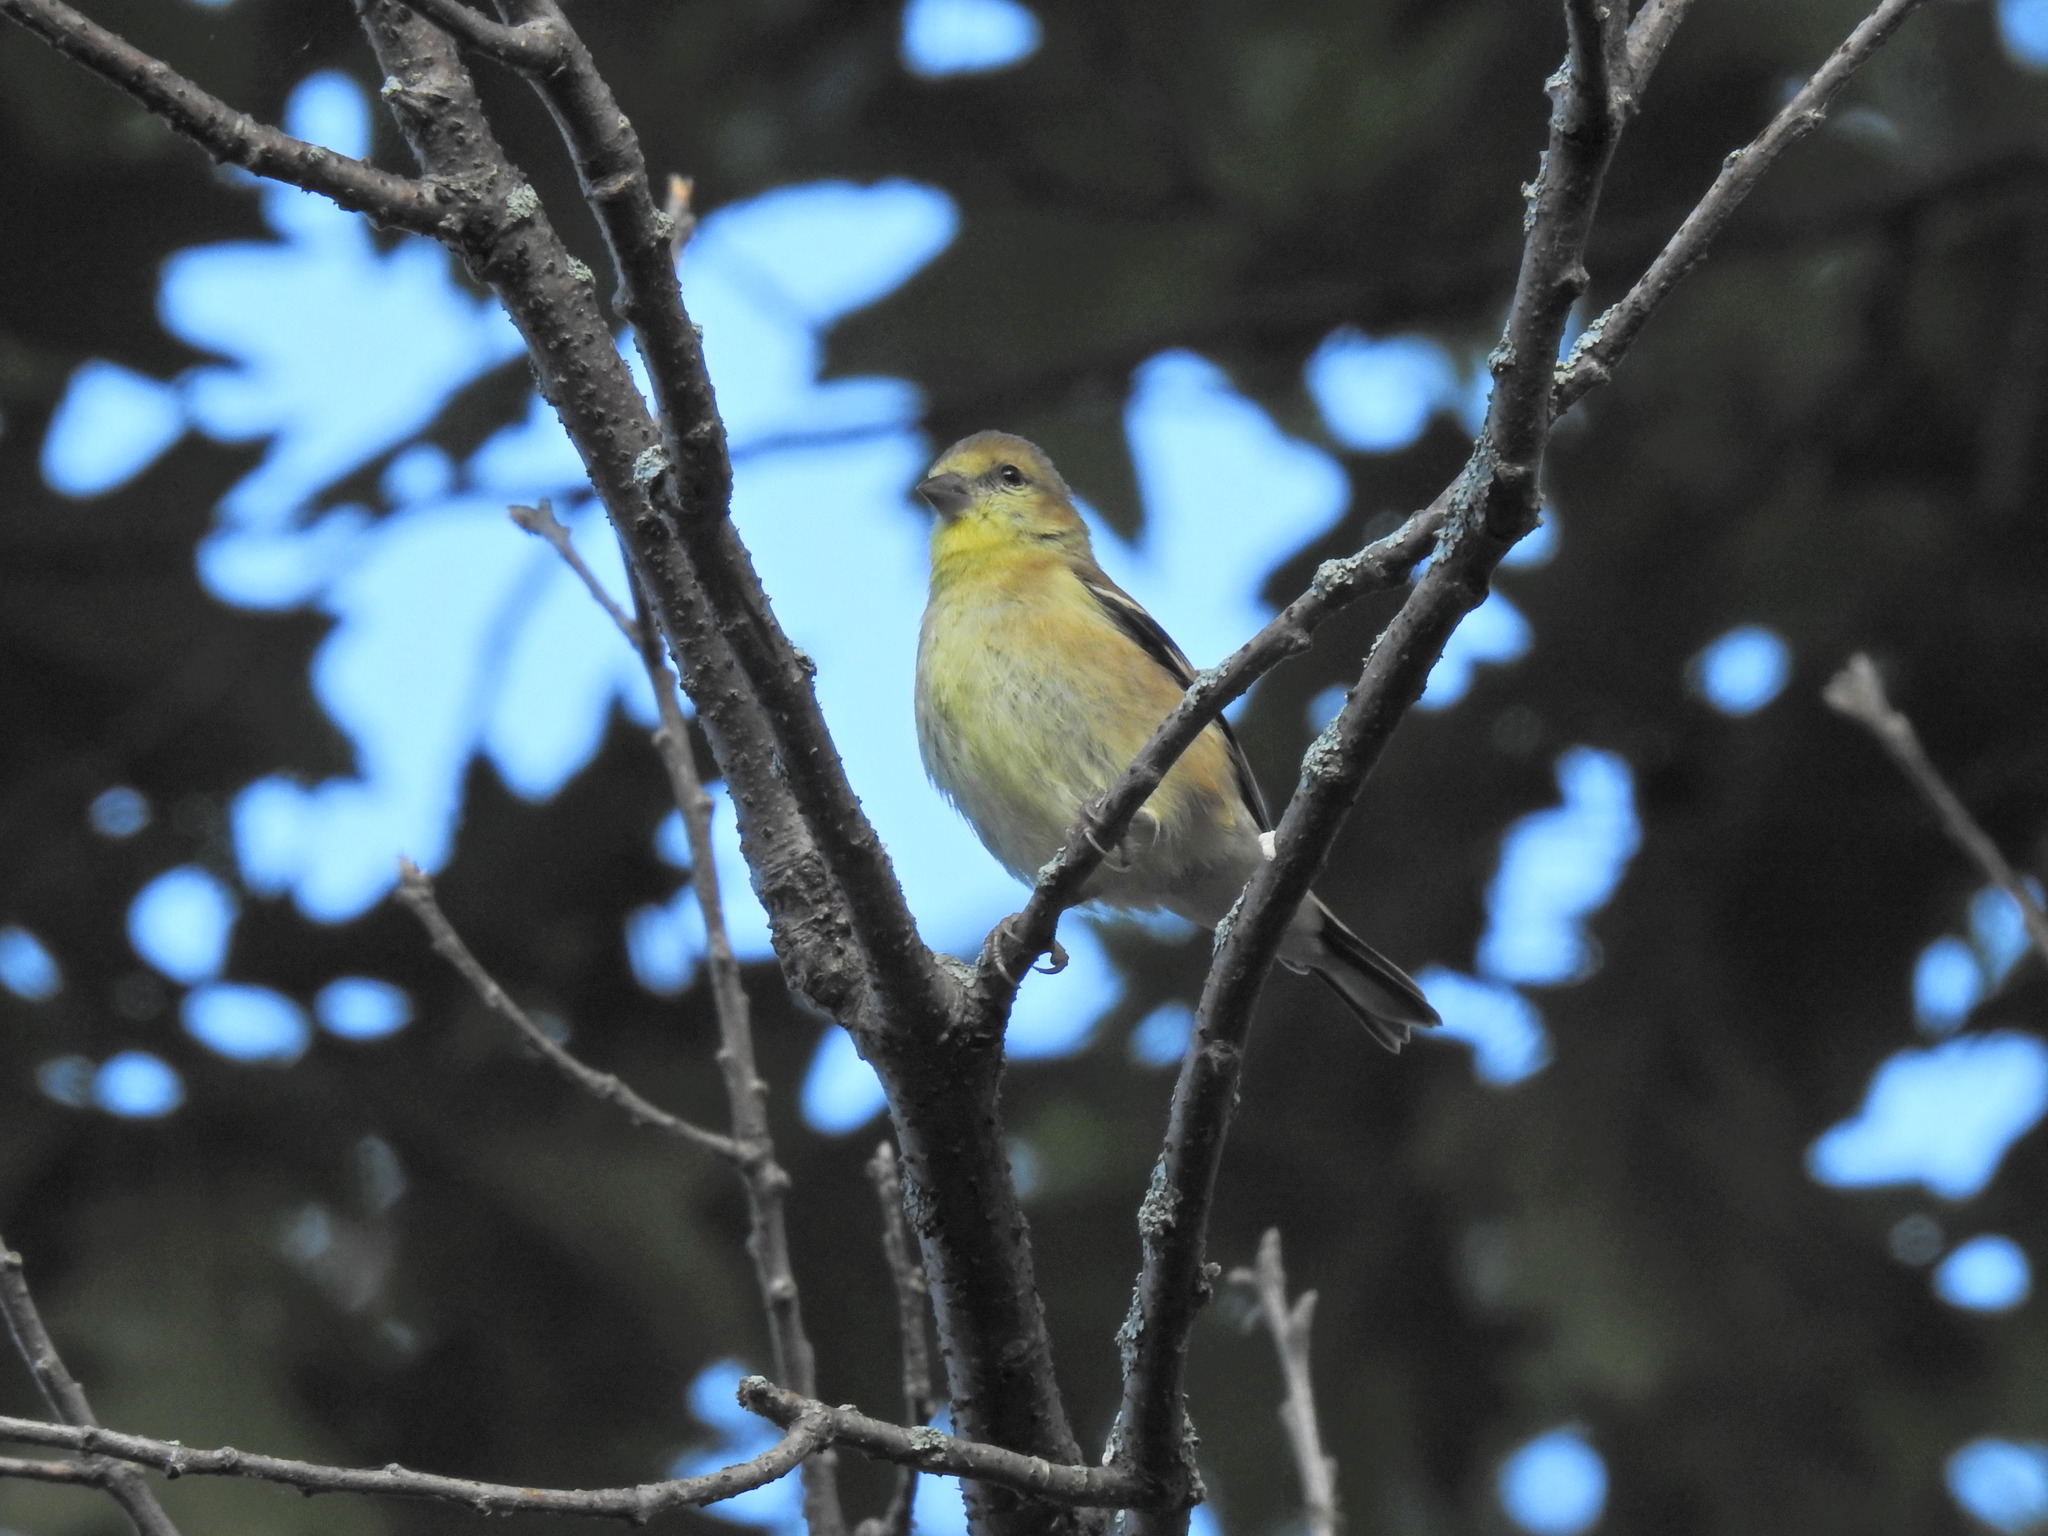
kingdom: Animalia
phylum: Chordata
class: Aves
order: Passeriformes
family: Fringillidae
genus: Spinus
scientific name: Spinus tristis
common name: American goldfinch
